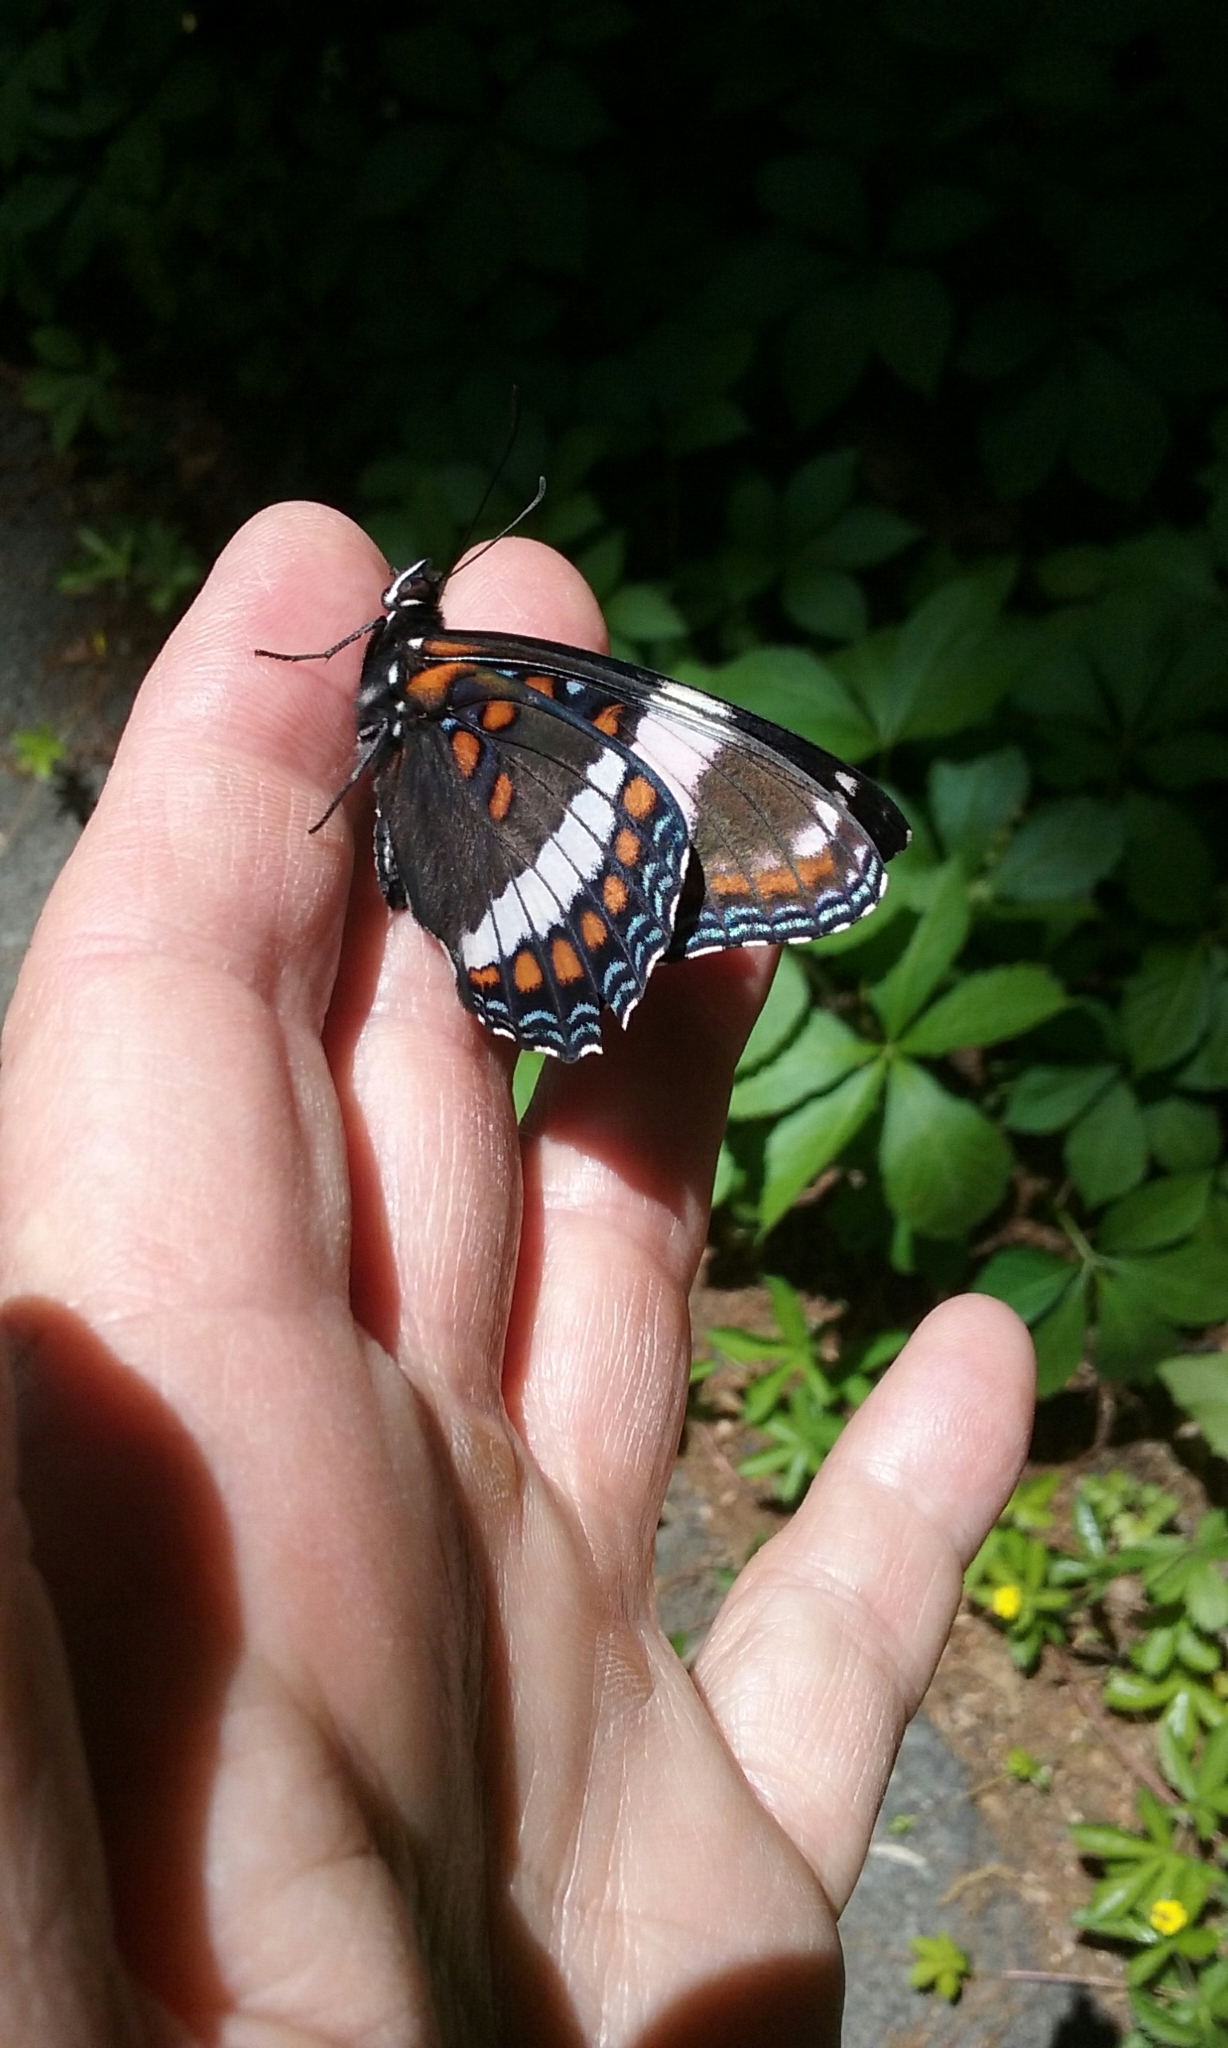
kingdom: Animalia
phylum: Arthropoda
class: Insecta
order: Lepidoptera
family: Nymphalidae
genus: Limenitis
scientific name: Limenitis astyanax
